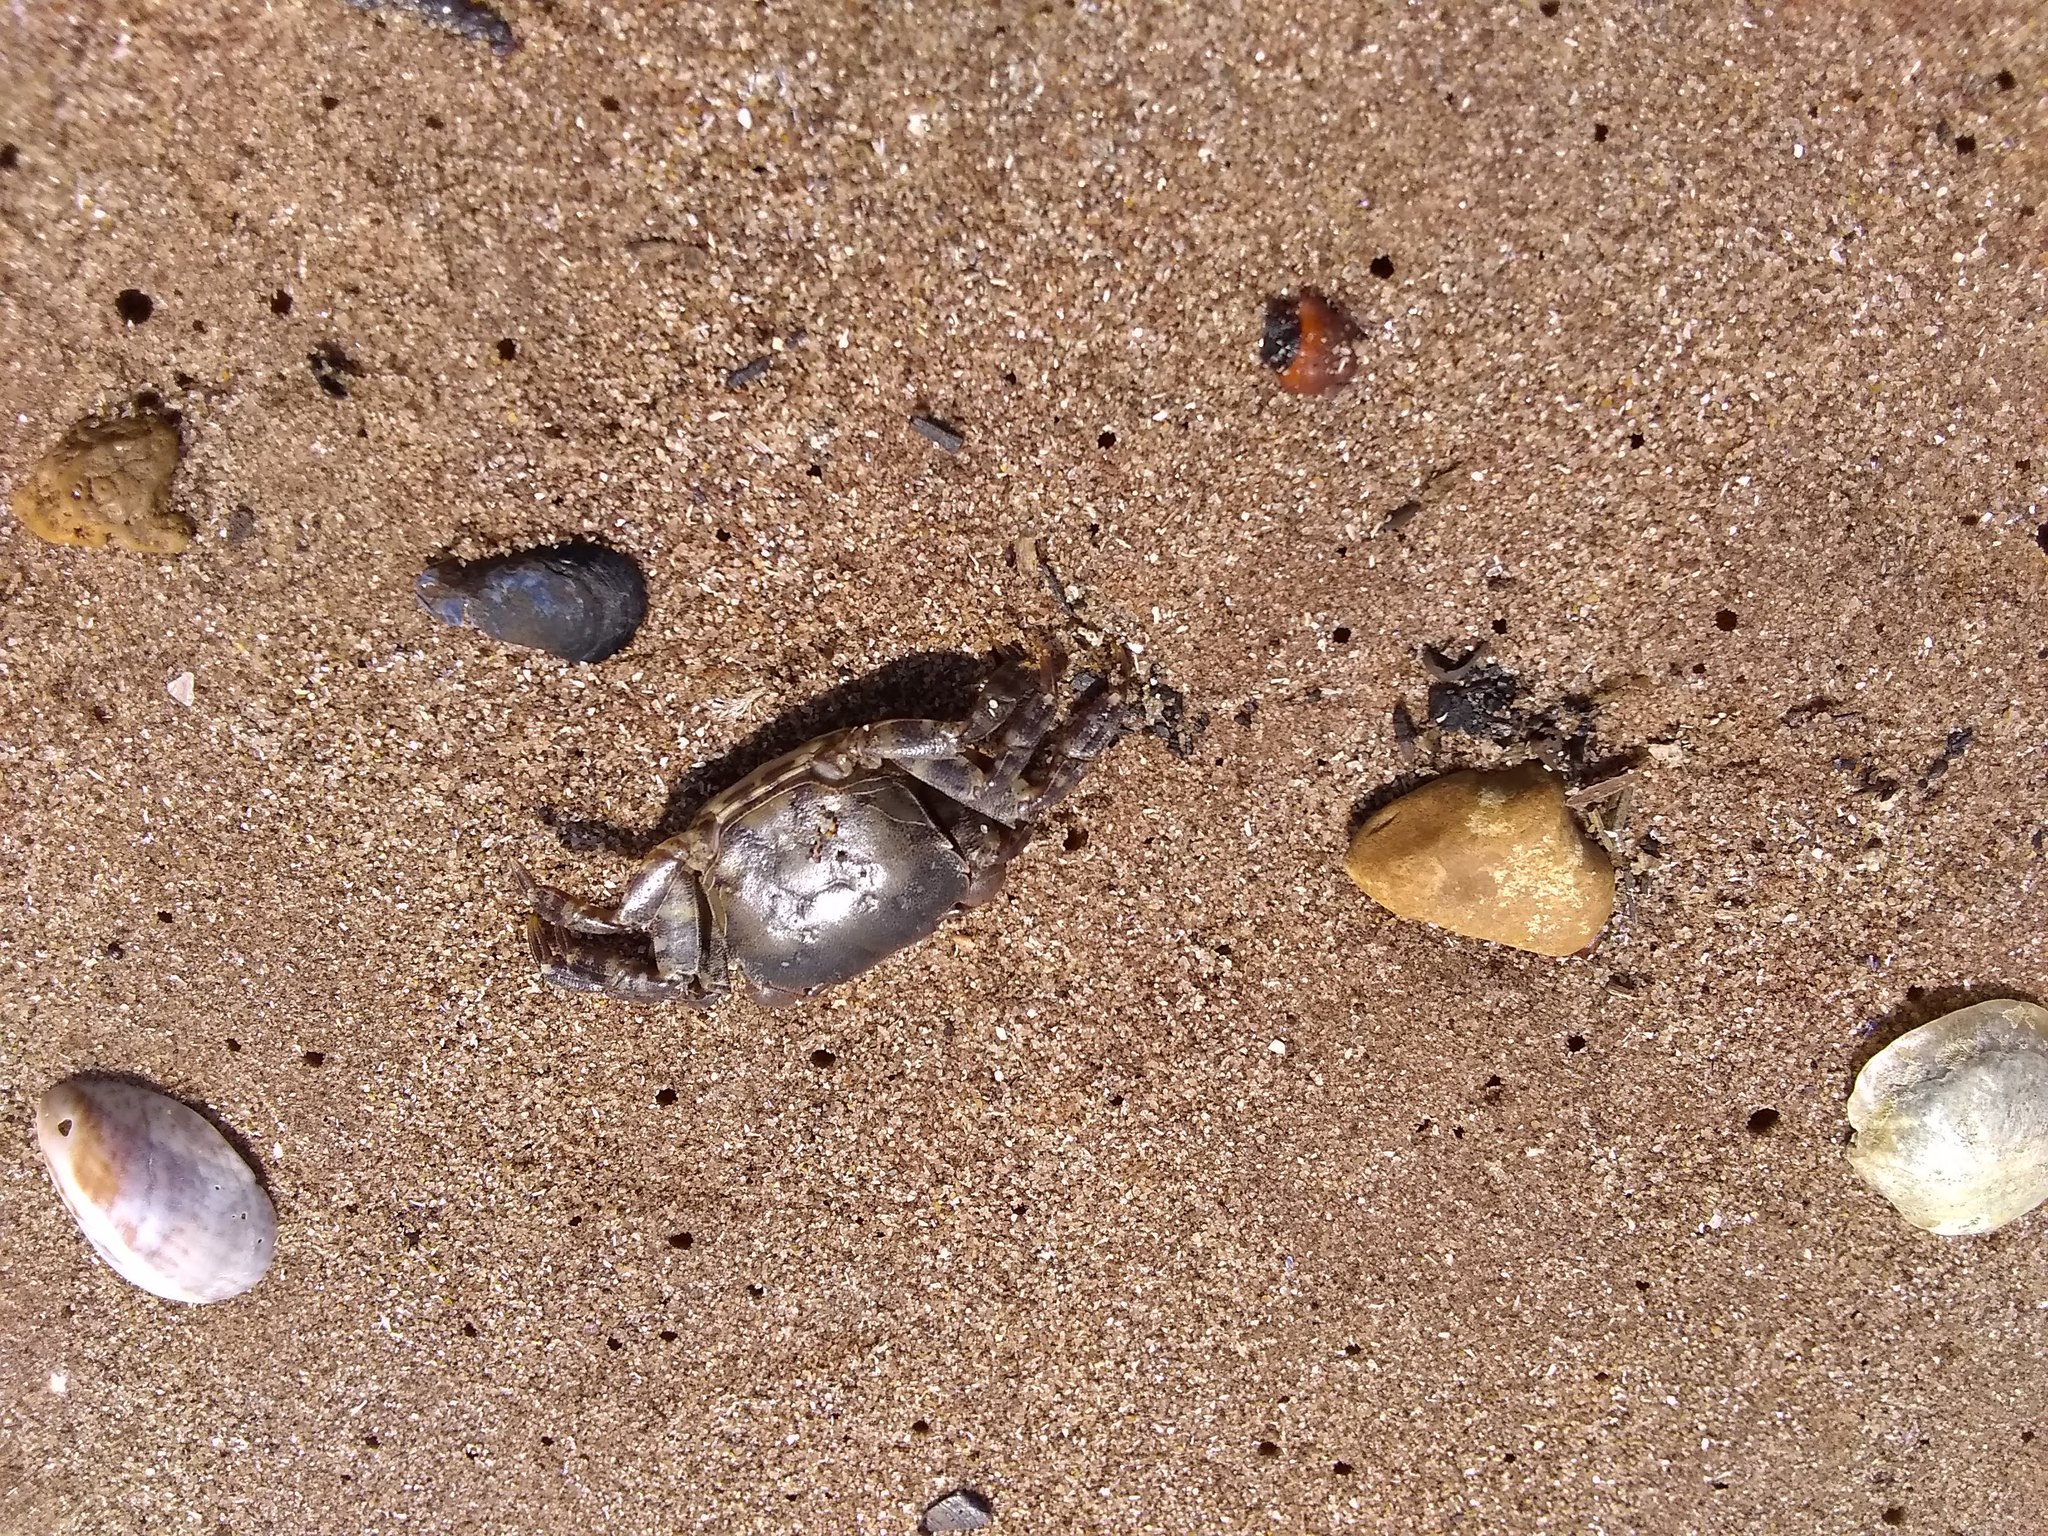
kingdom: Animalia
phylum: Arthropoda
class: Malacostraca
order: Decapoda
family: Varunidae
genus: Hemigrapsus
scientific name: Hemigrapsus sanguineus
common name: Asian shore crab
